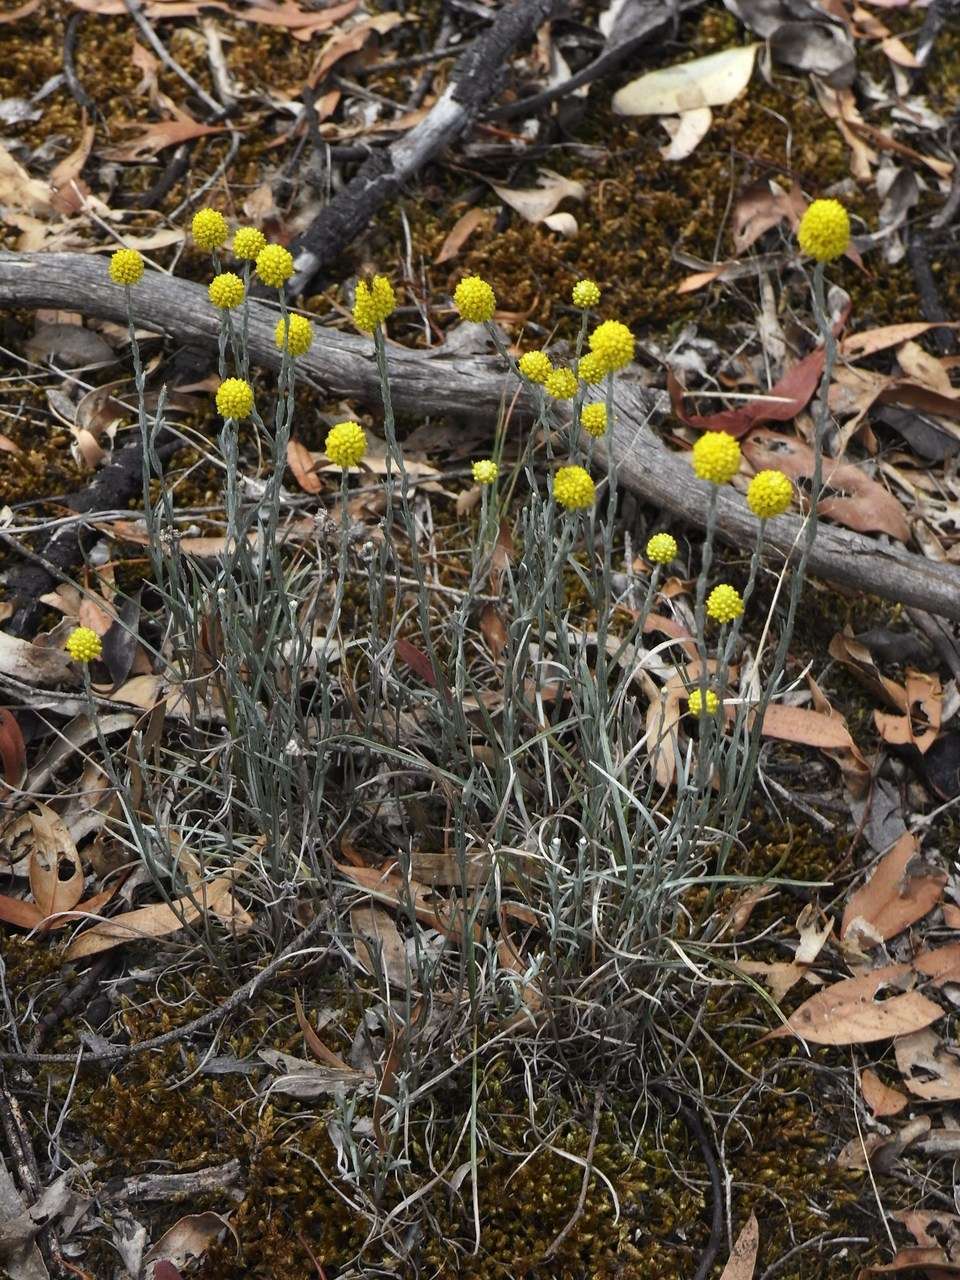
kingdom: Plantae
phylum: Tracheophyta
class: Magnoliopsida
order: Asterales
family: Asteraceae
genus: Calocephalus
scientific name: Calocephalus citreus
